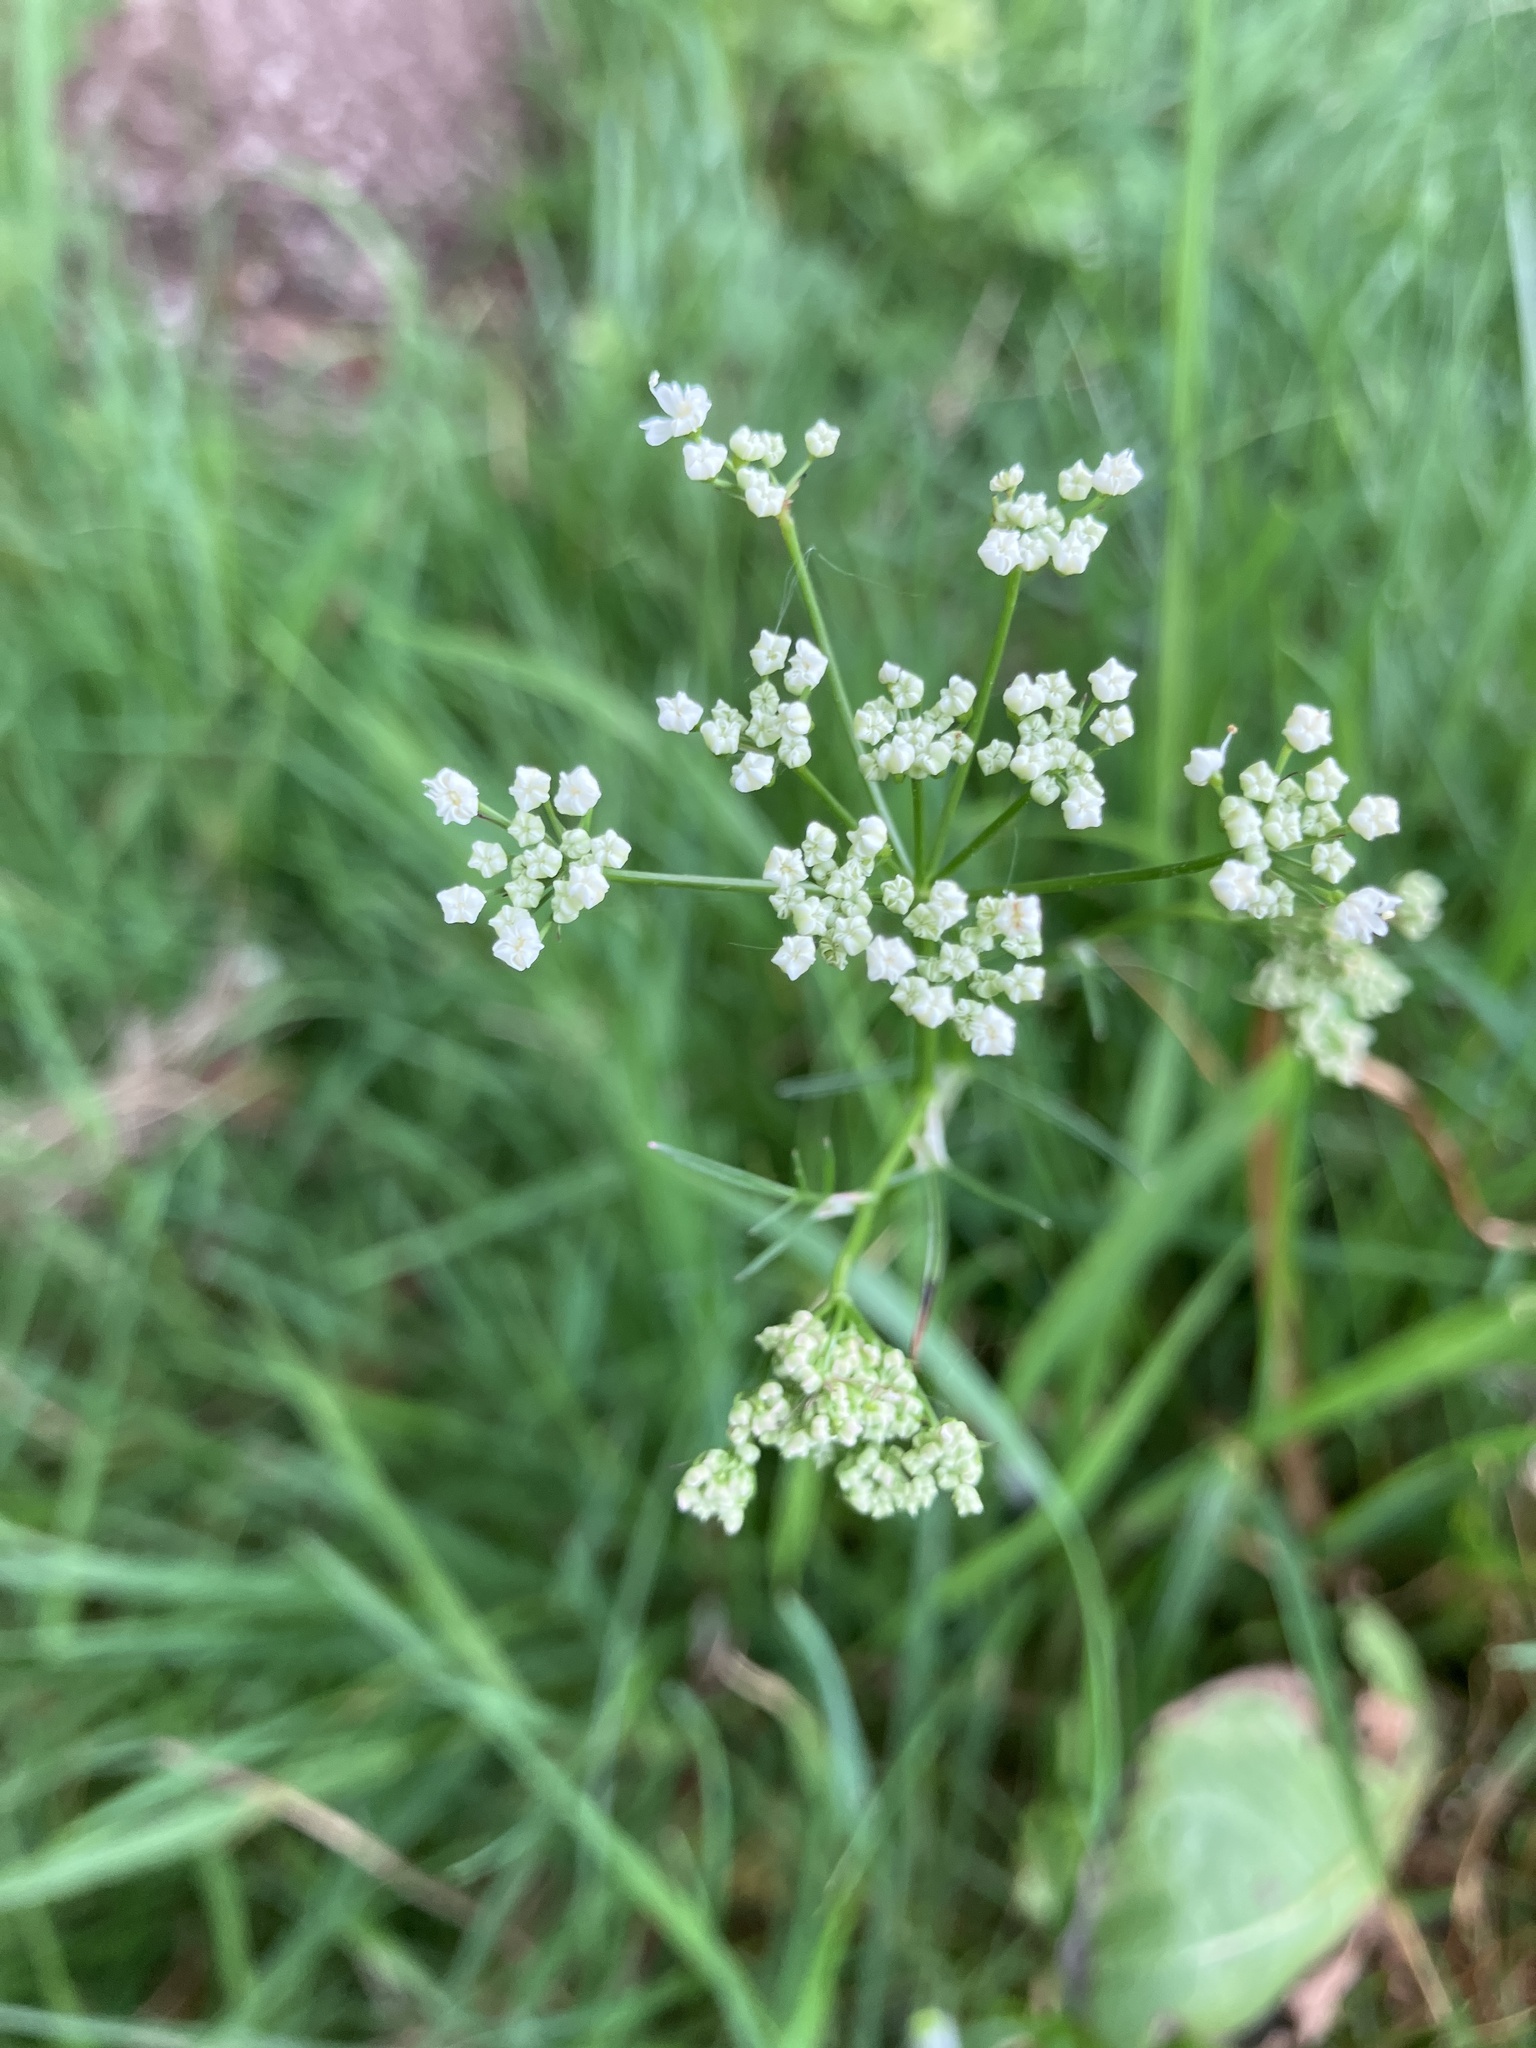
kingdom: Plantae
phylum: Tracheophyta
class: Magnoliopsida
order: Apiales
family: Apiaceae
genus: Conopodium
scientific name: Conopodium majus
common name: Pignut
